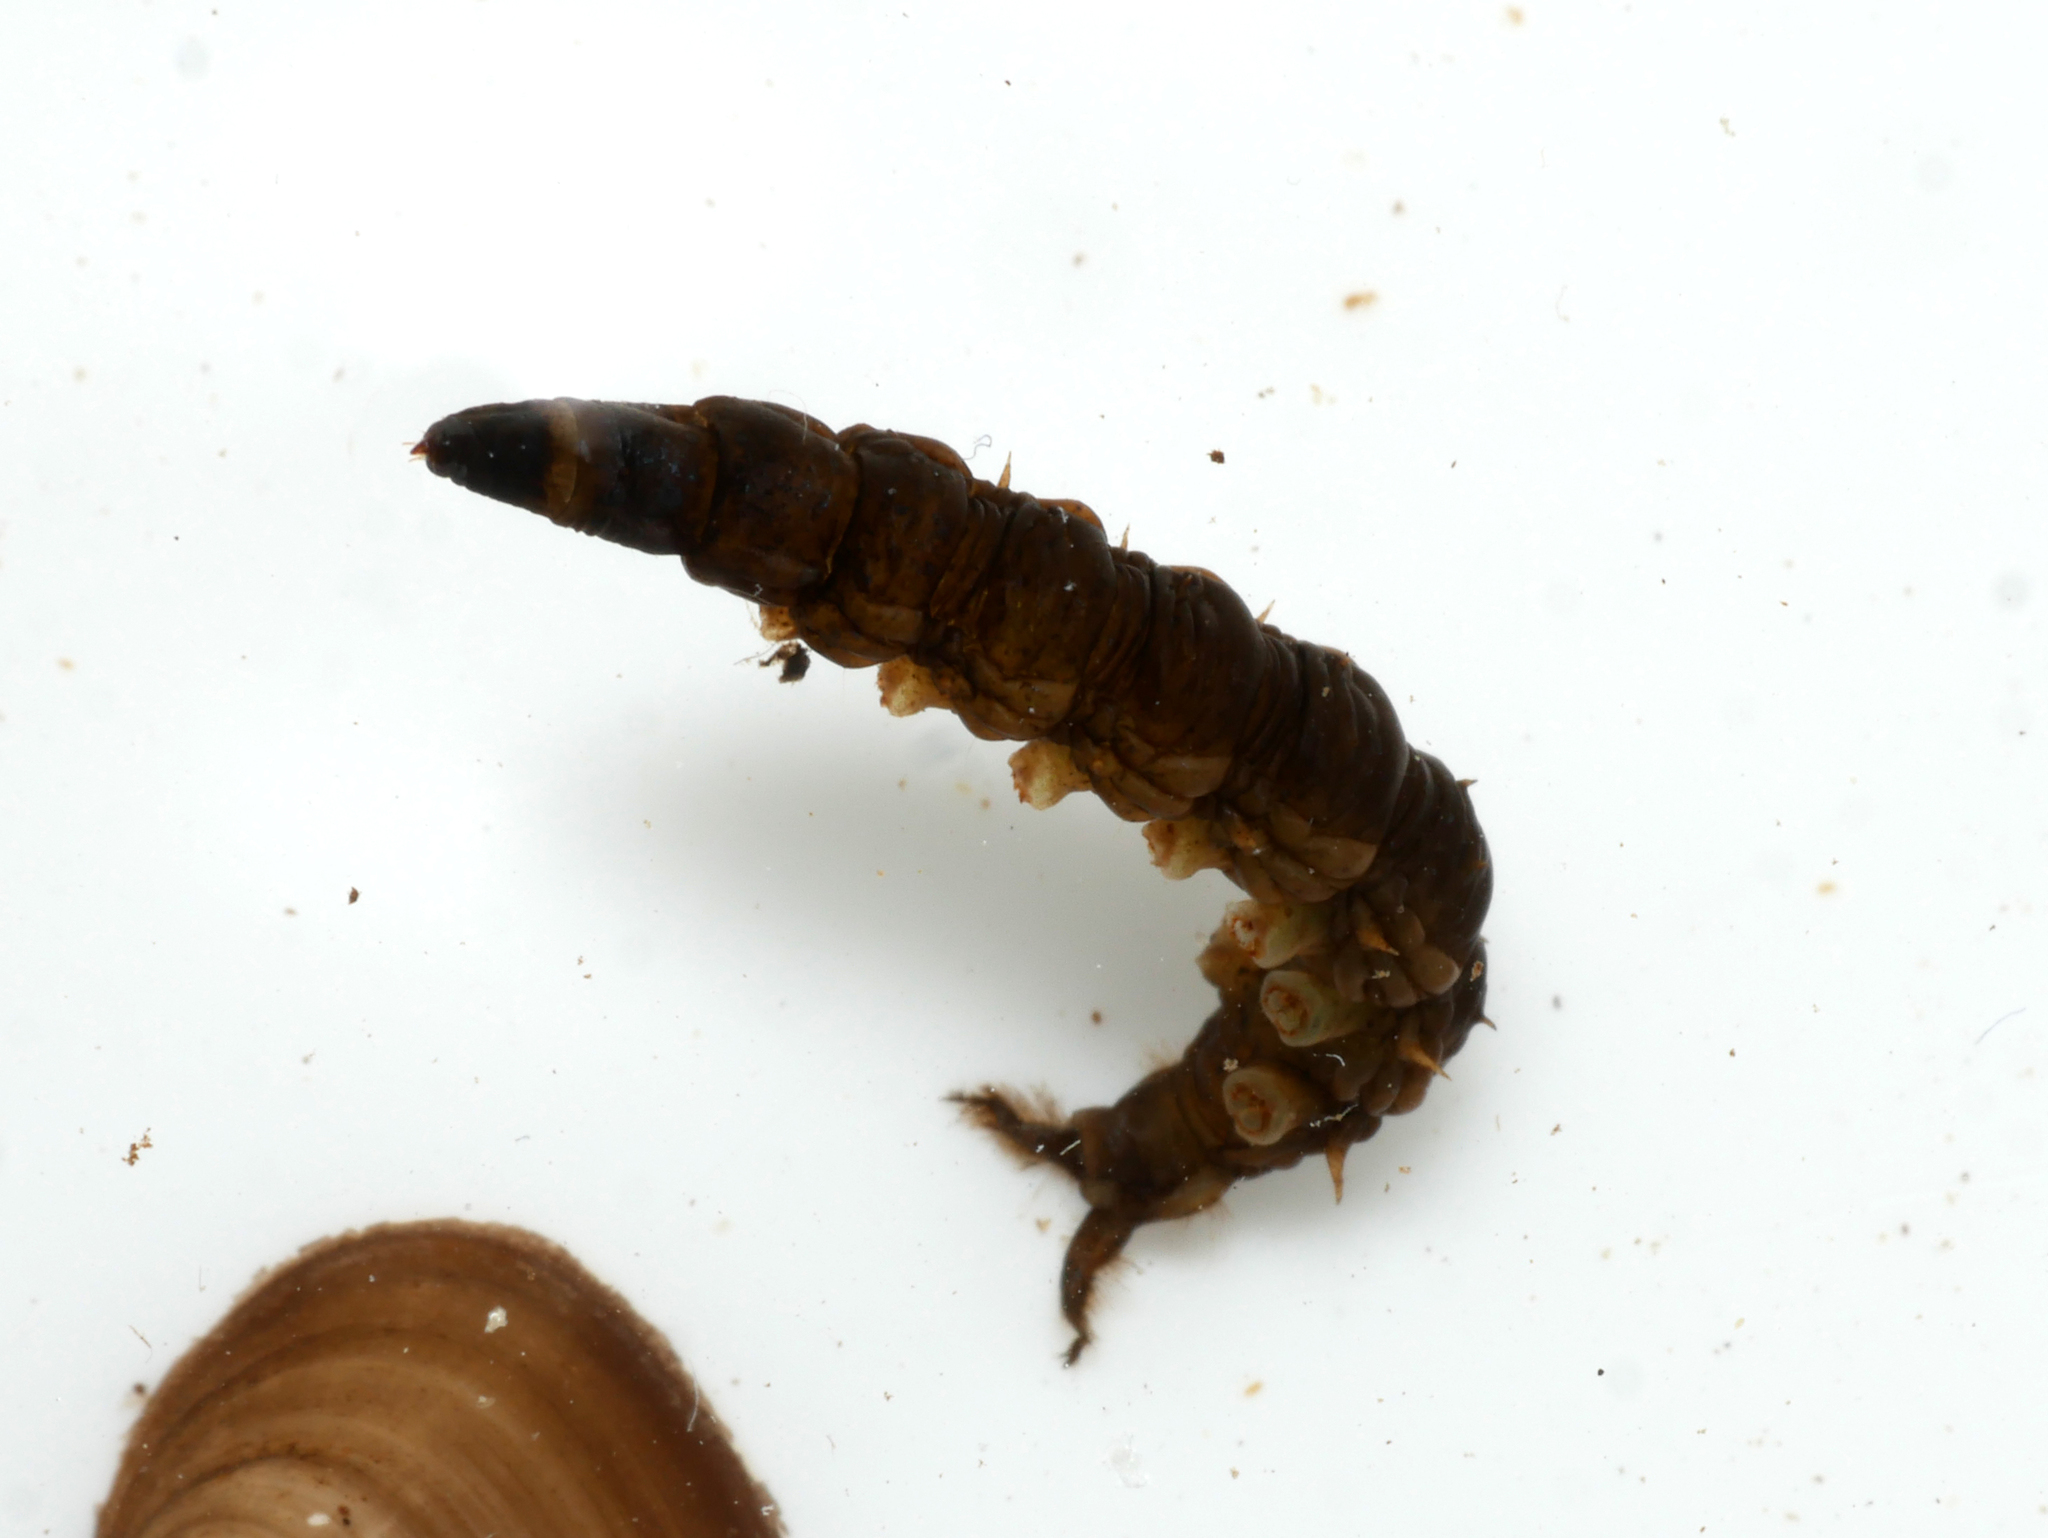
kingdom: Animalia
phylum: Arthropoda
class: Insecta
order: Diptera
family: Athericidae
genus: Atherix
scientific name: Atherix ibis
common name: Yellow-legged water-snipefly
